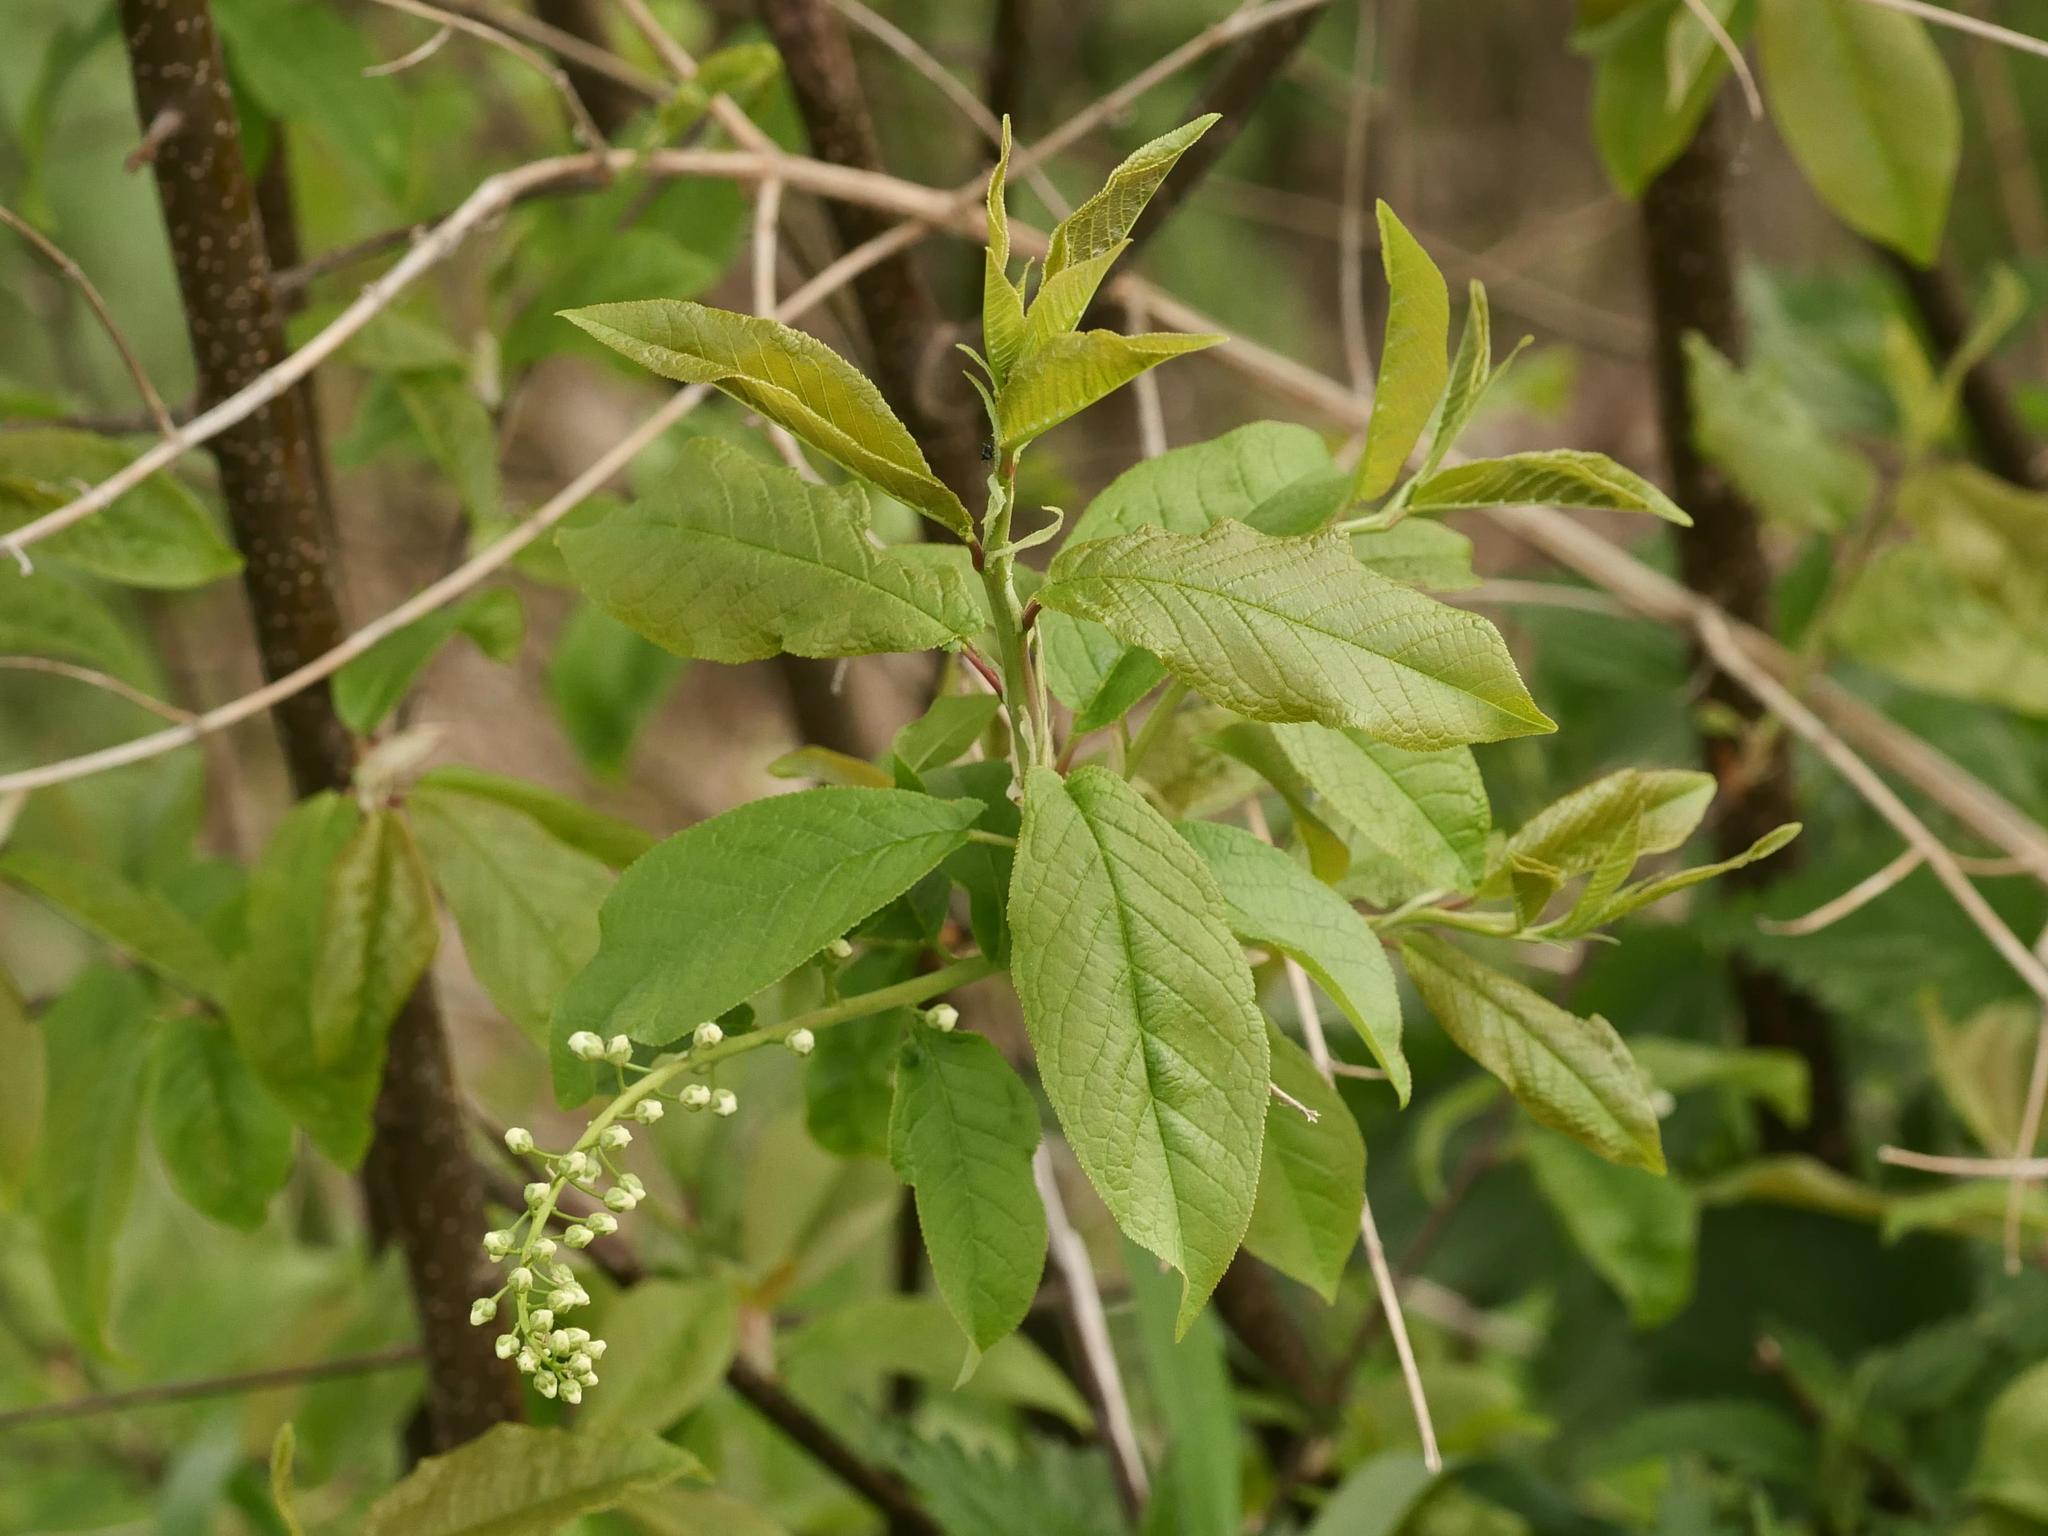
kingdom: Plantae
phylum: Tracheophyta
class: Magnoliopsida
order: Rosales
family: Rosaceae
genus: Prunus
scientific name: Prunus padus
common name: Bird cherry
